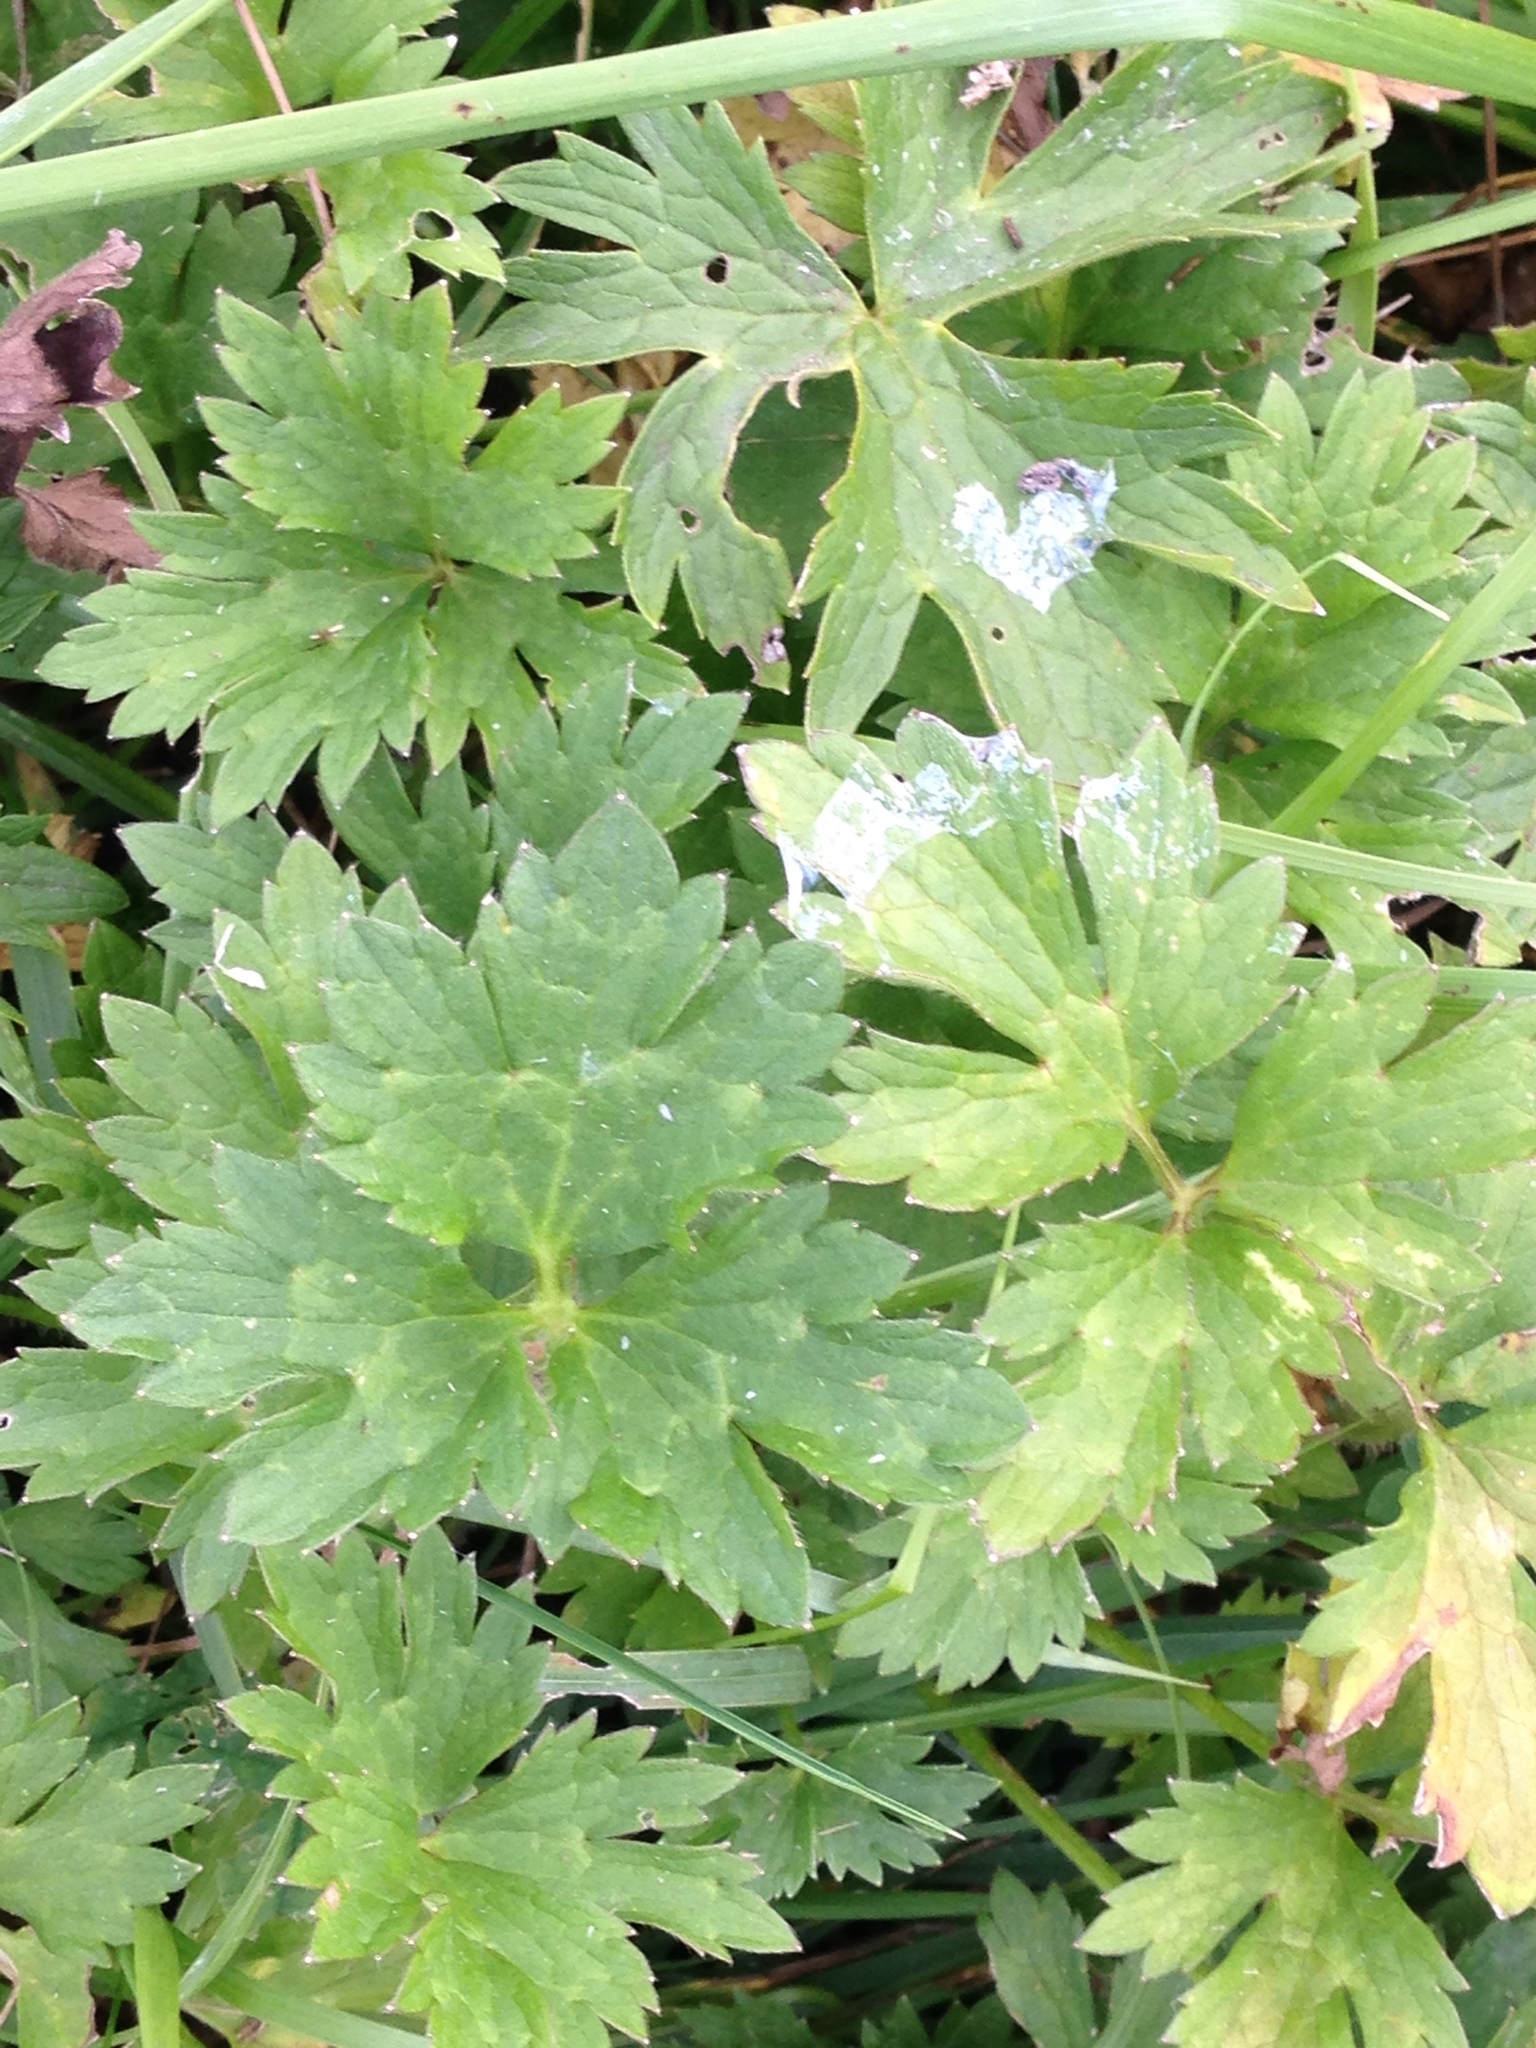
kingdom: Plantae
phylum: Tracheophyta
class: Magnoliopsida
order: Ranunculales
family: Ranunculaceae
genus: Ranunculus
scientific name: Ranunculus repens
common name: Creeping buttercup
